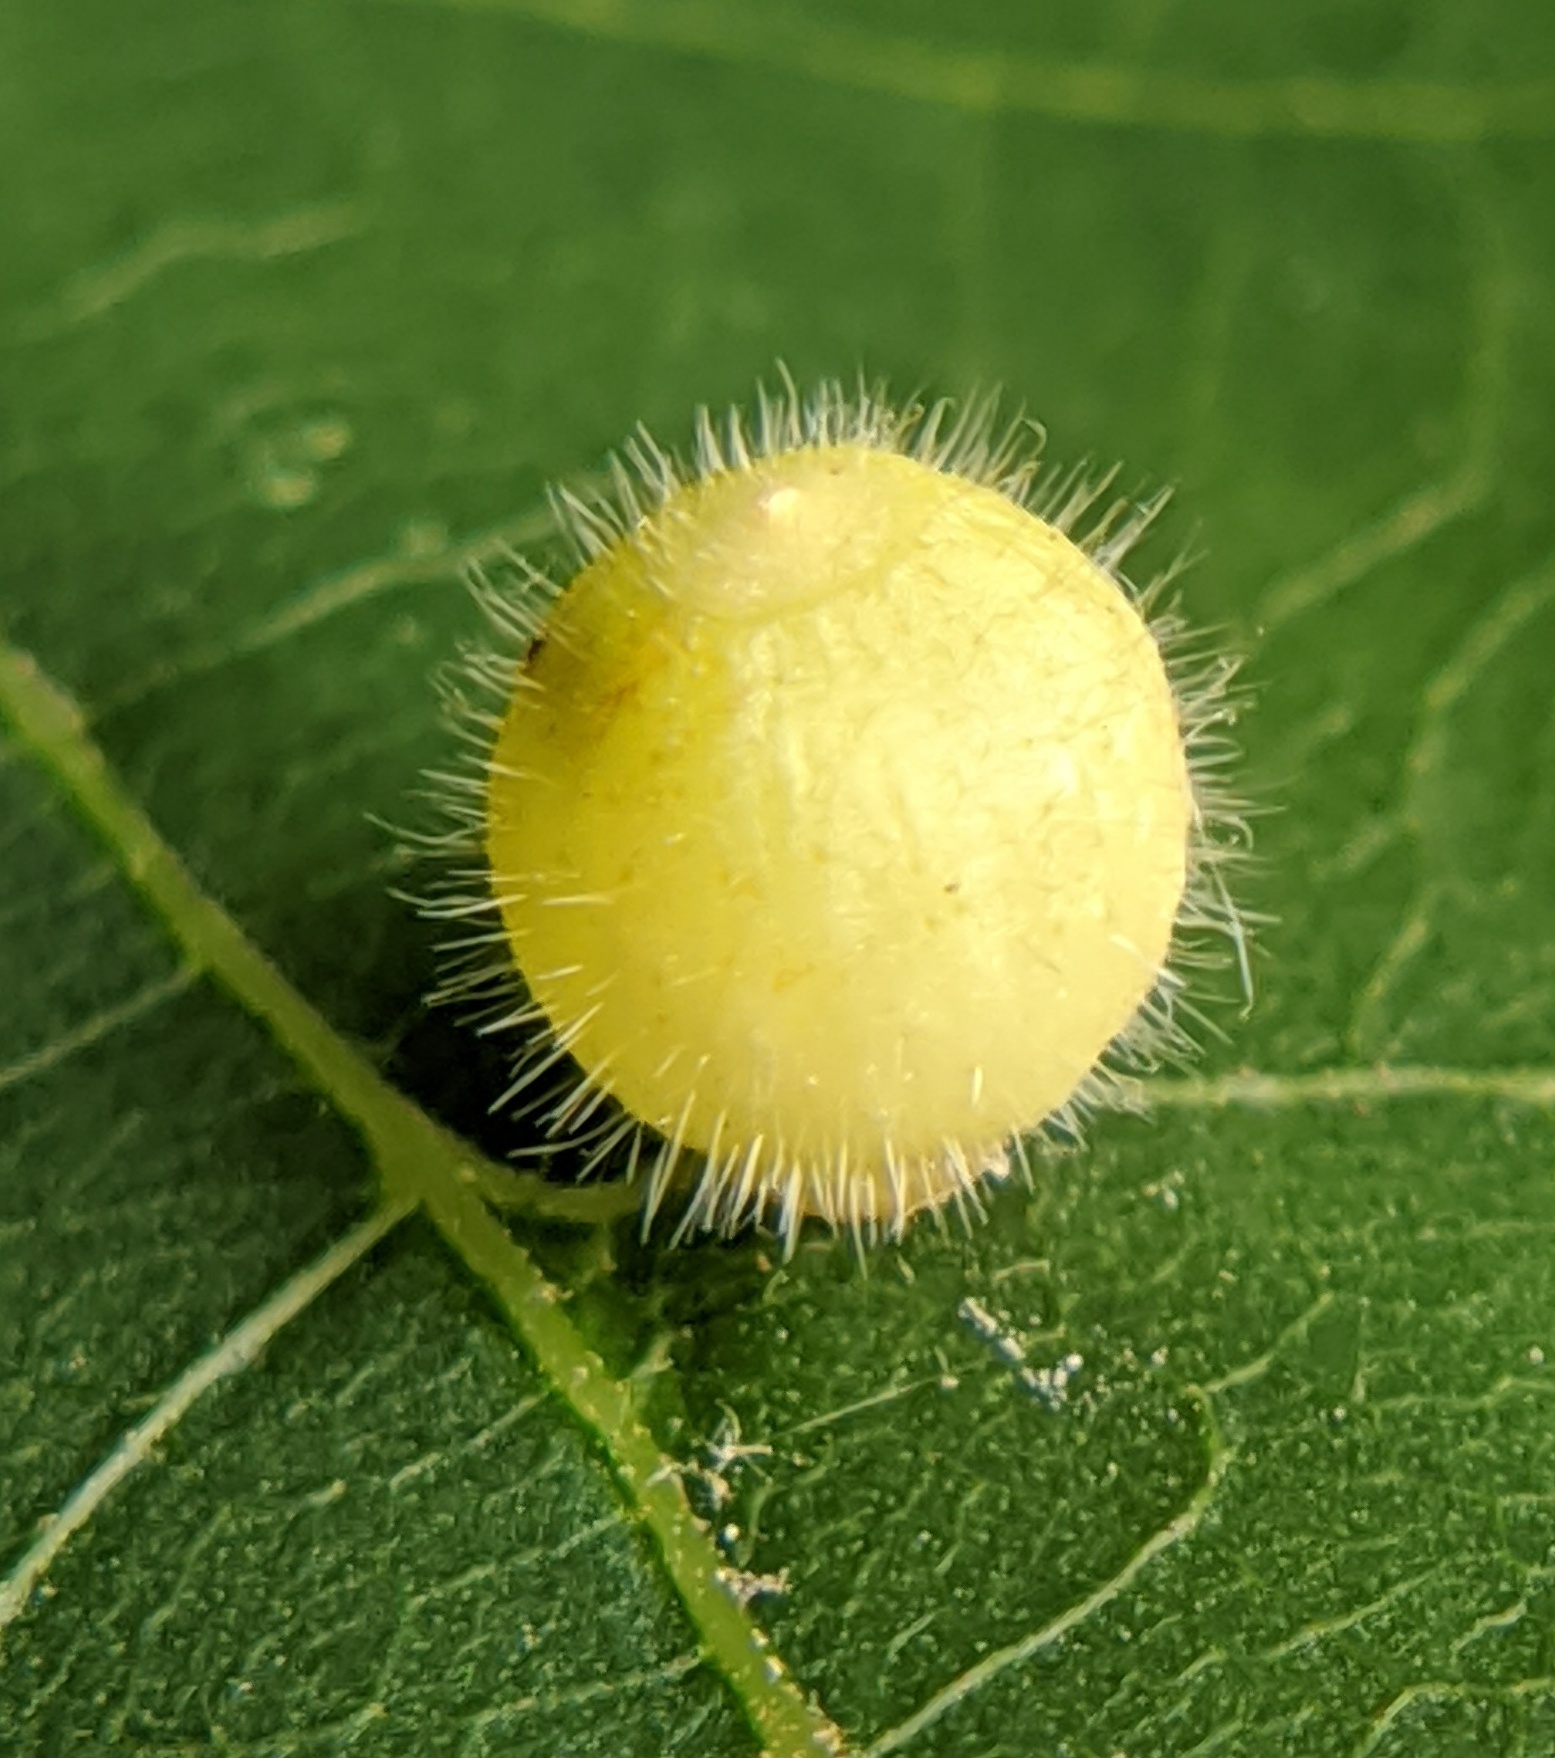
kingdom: Animalia
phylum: Arthropoda
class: Insecta
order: Diptera
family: Cecidomyiidae
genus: Caryomyia
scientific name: Caryomyia cilidolium
